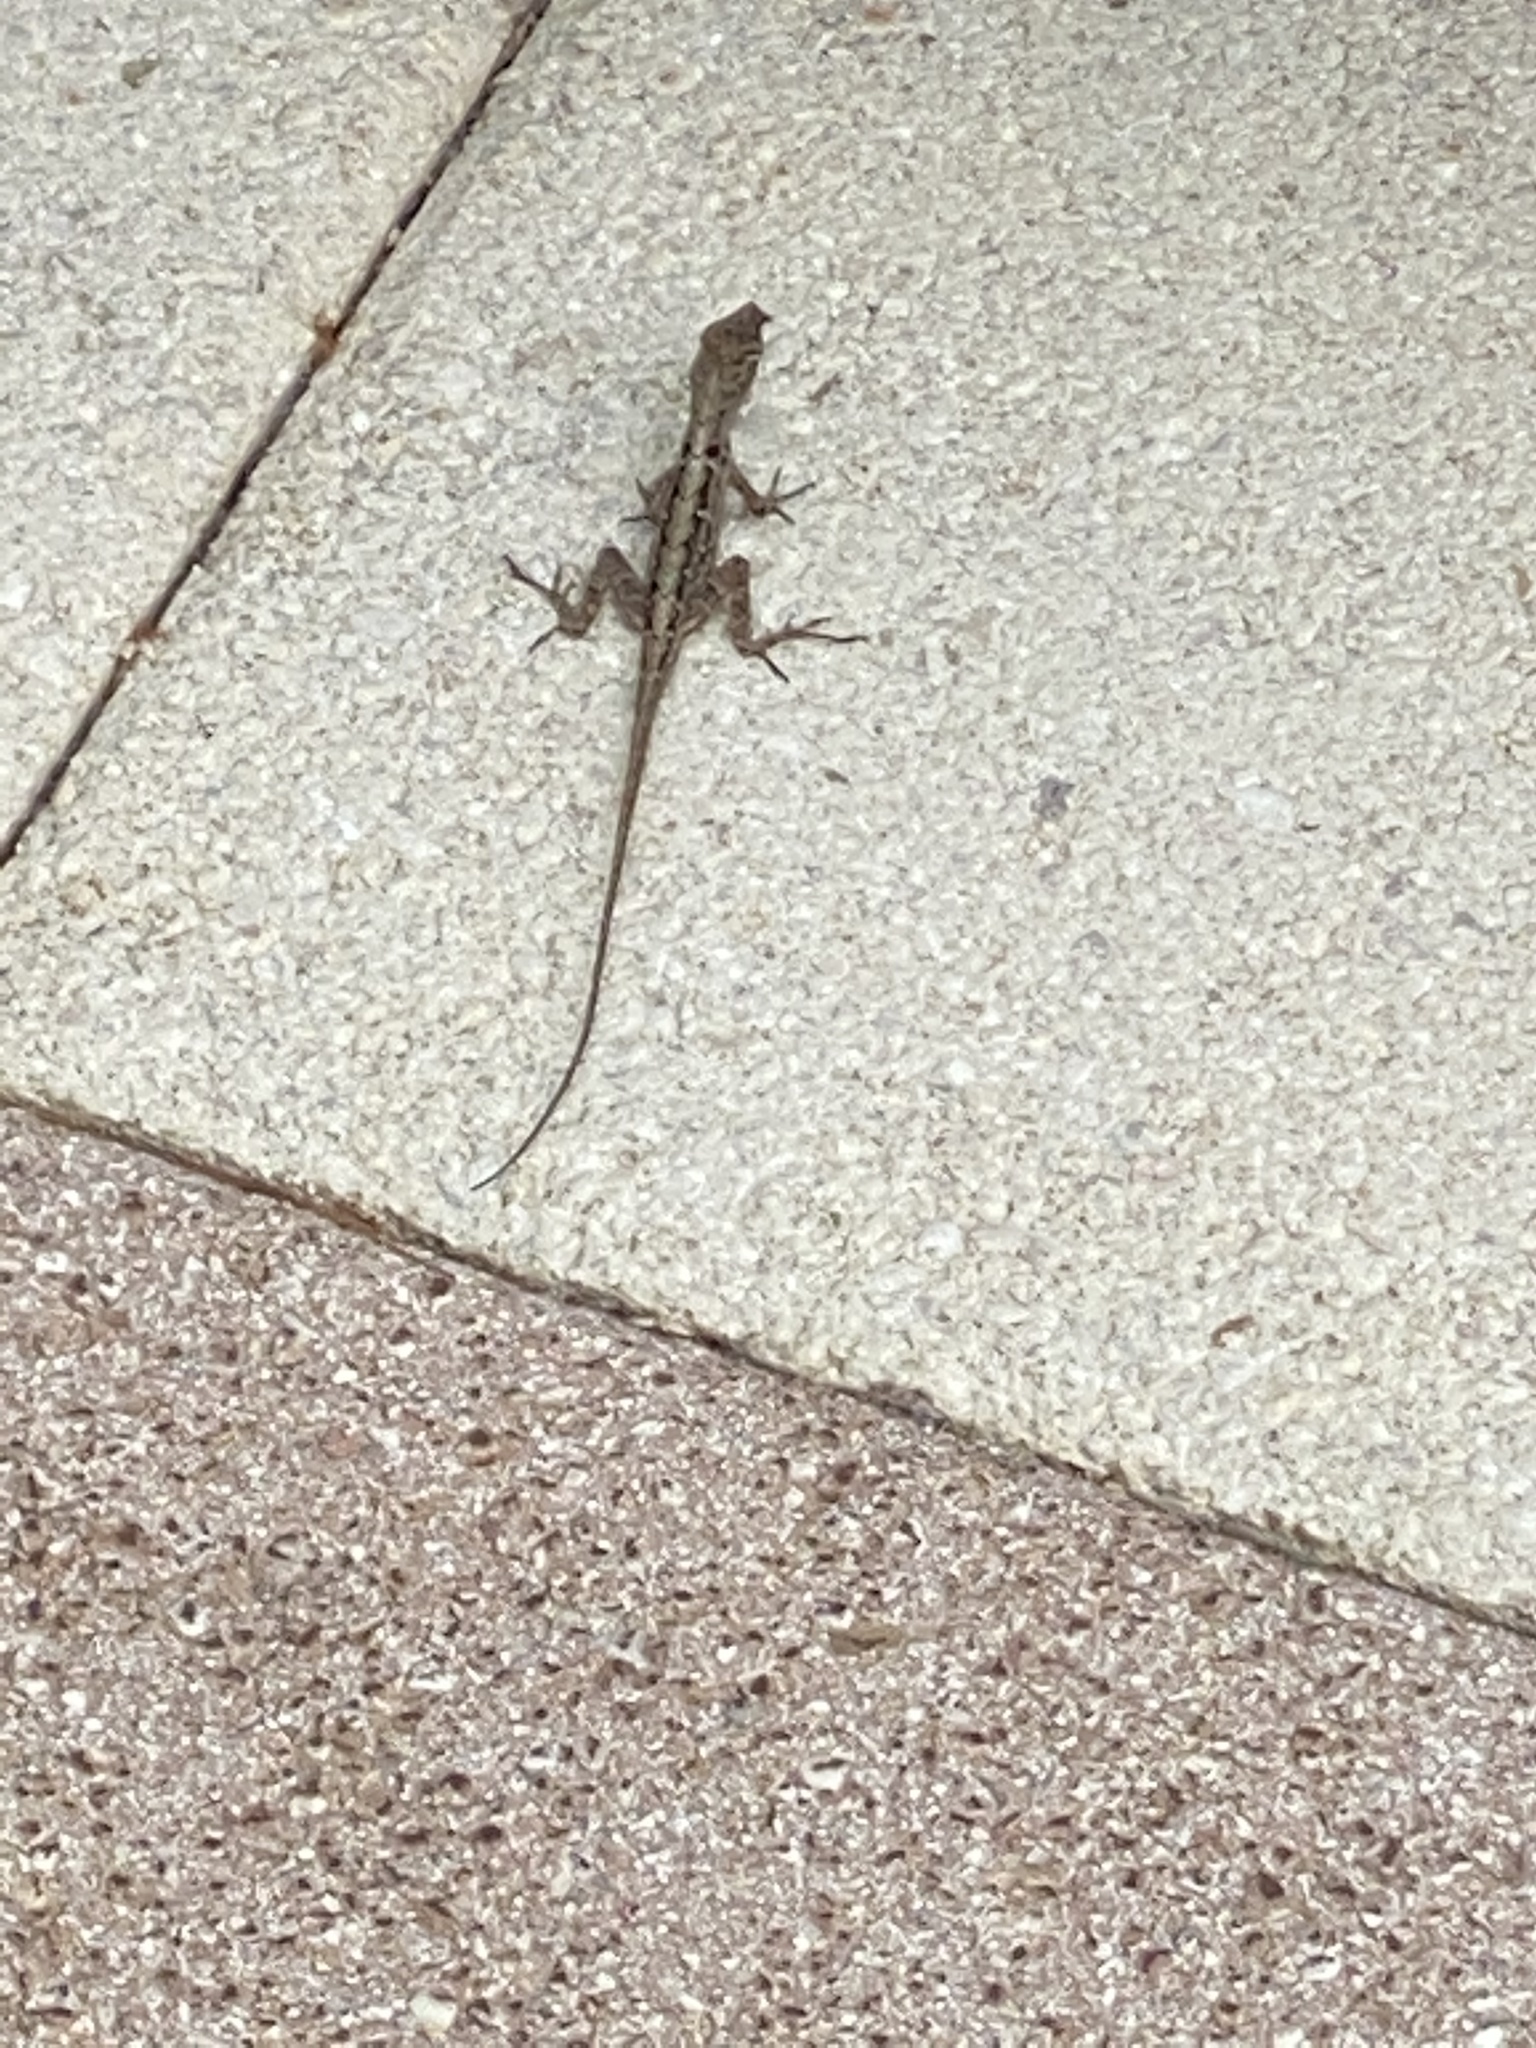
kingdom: Animalia
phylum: Chordata
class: Squamata
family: Dactyloidae
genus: Anolis
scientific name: Anolis sagrei
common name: Brown anole
